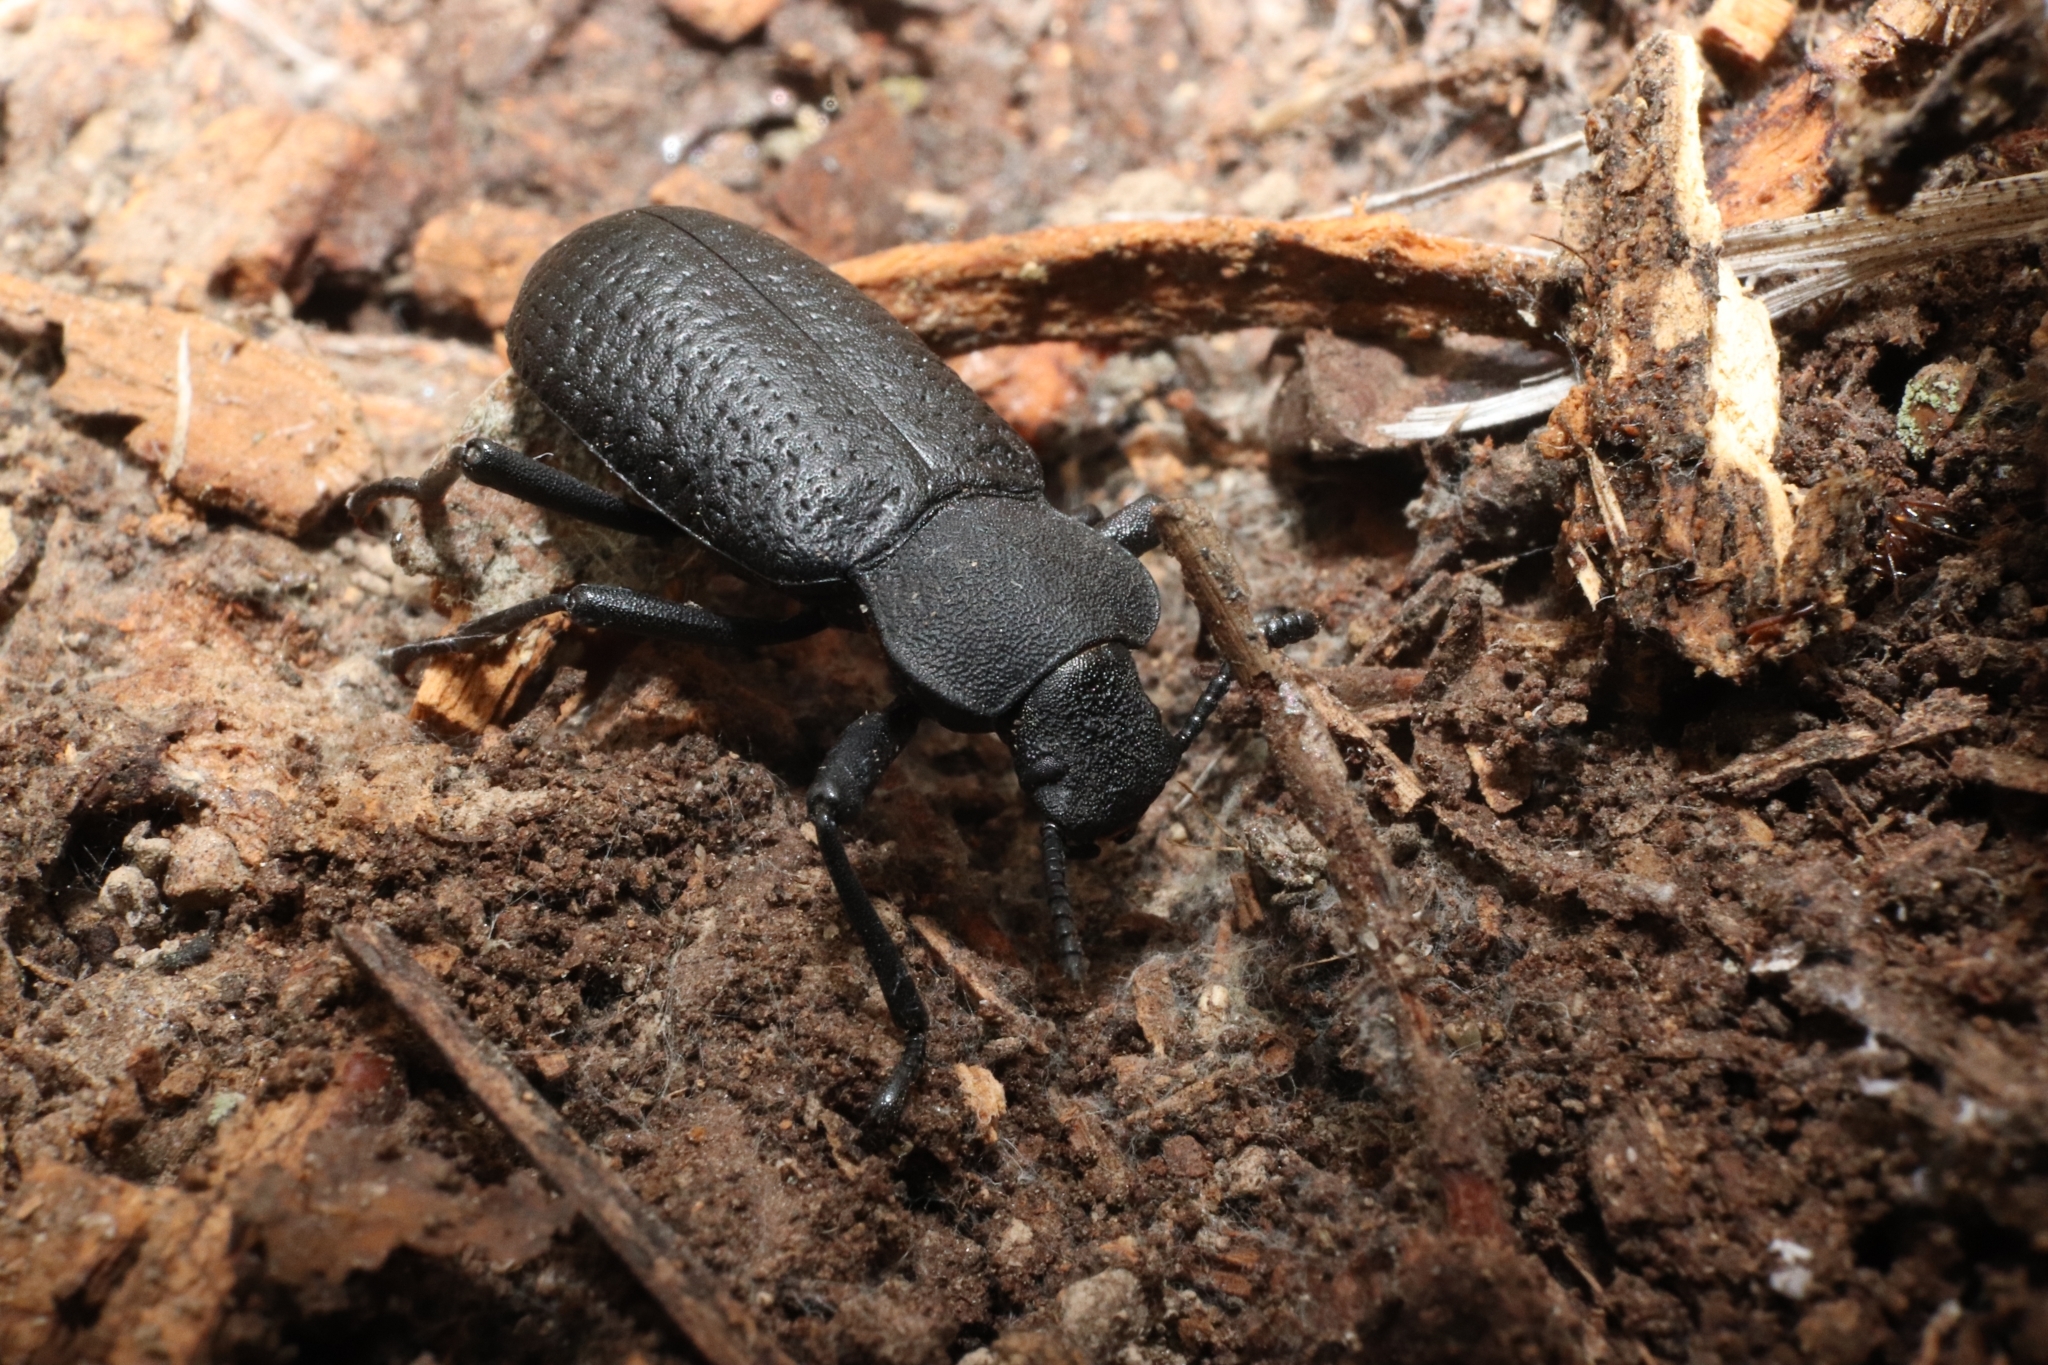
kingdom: Animalia
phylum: Arthropoda
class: Insecta
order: Coleoptera
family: Tenebrionidae
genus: Iphthiminus
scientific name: Iphthiminus serratus
